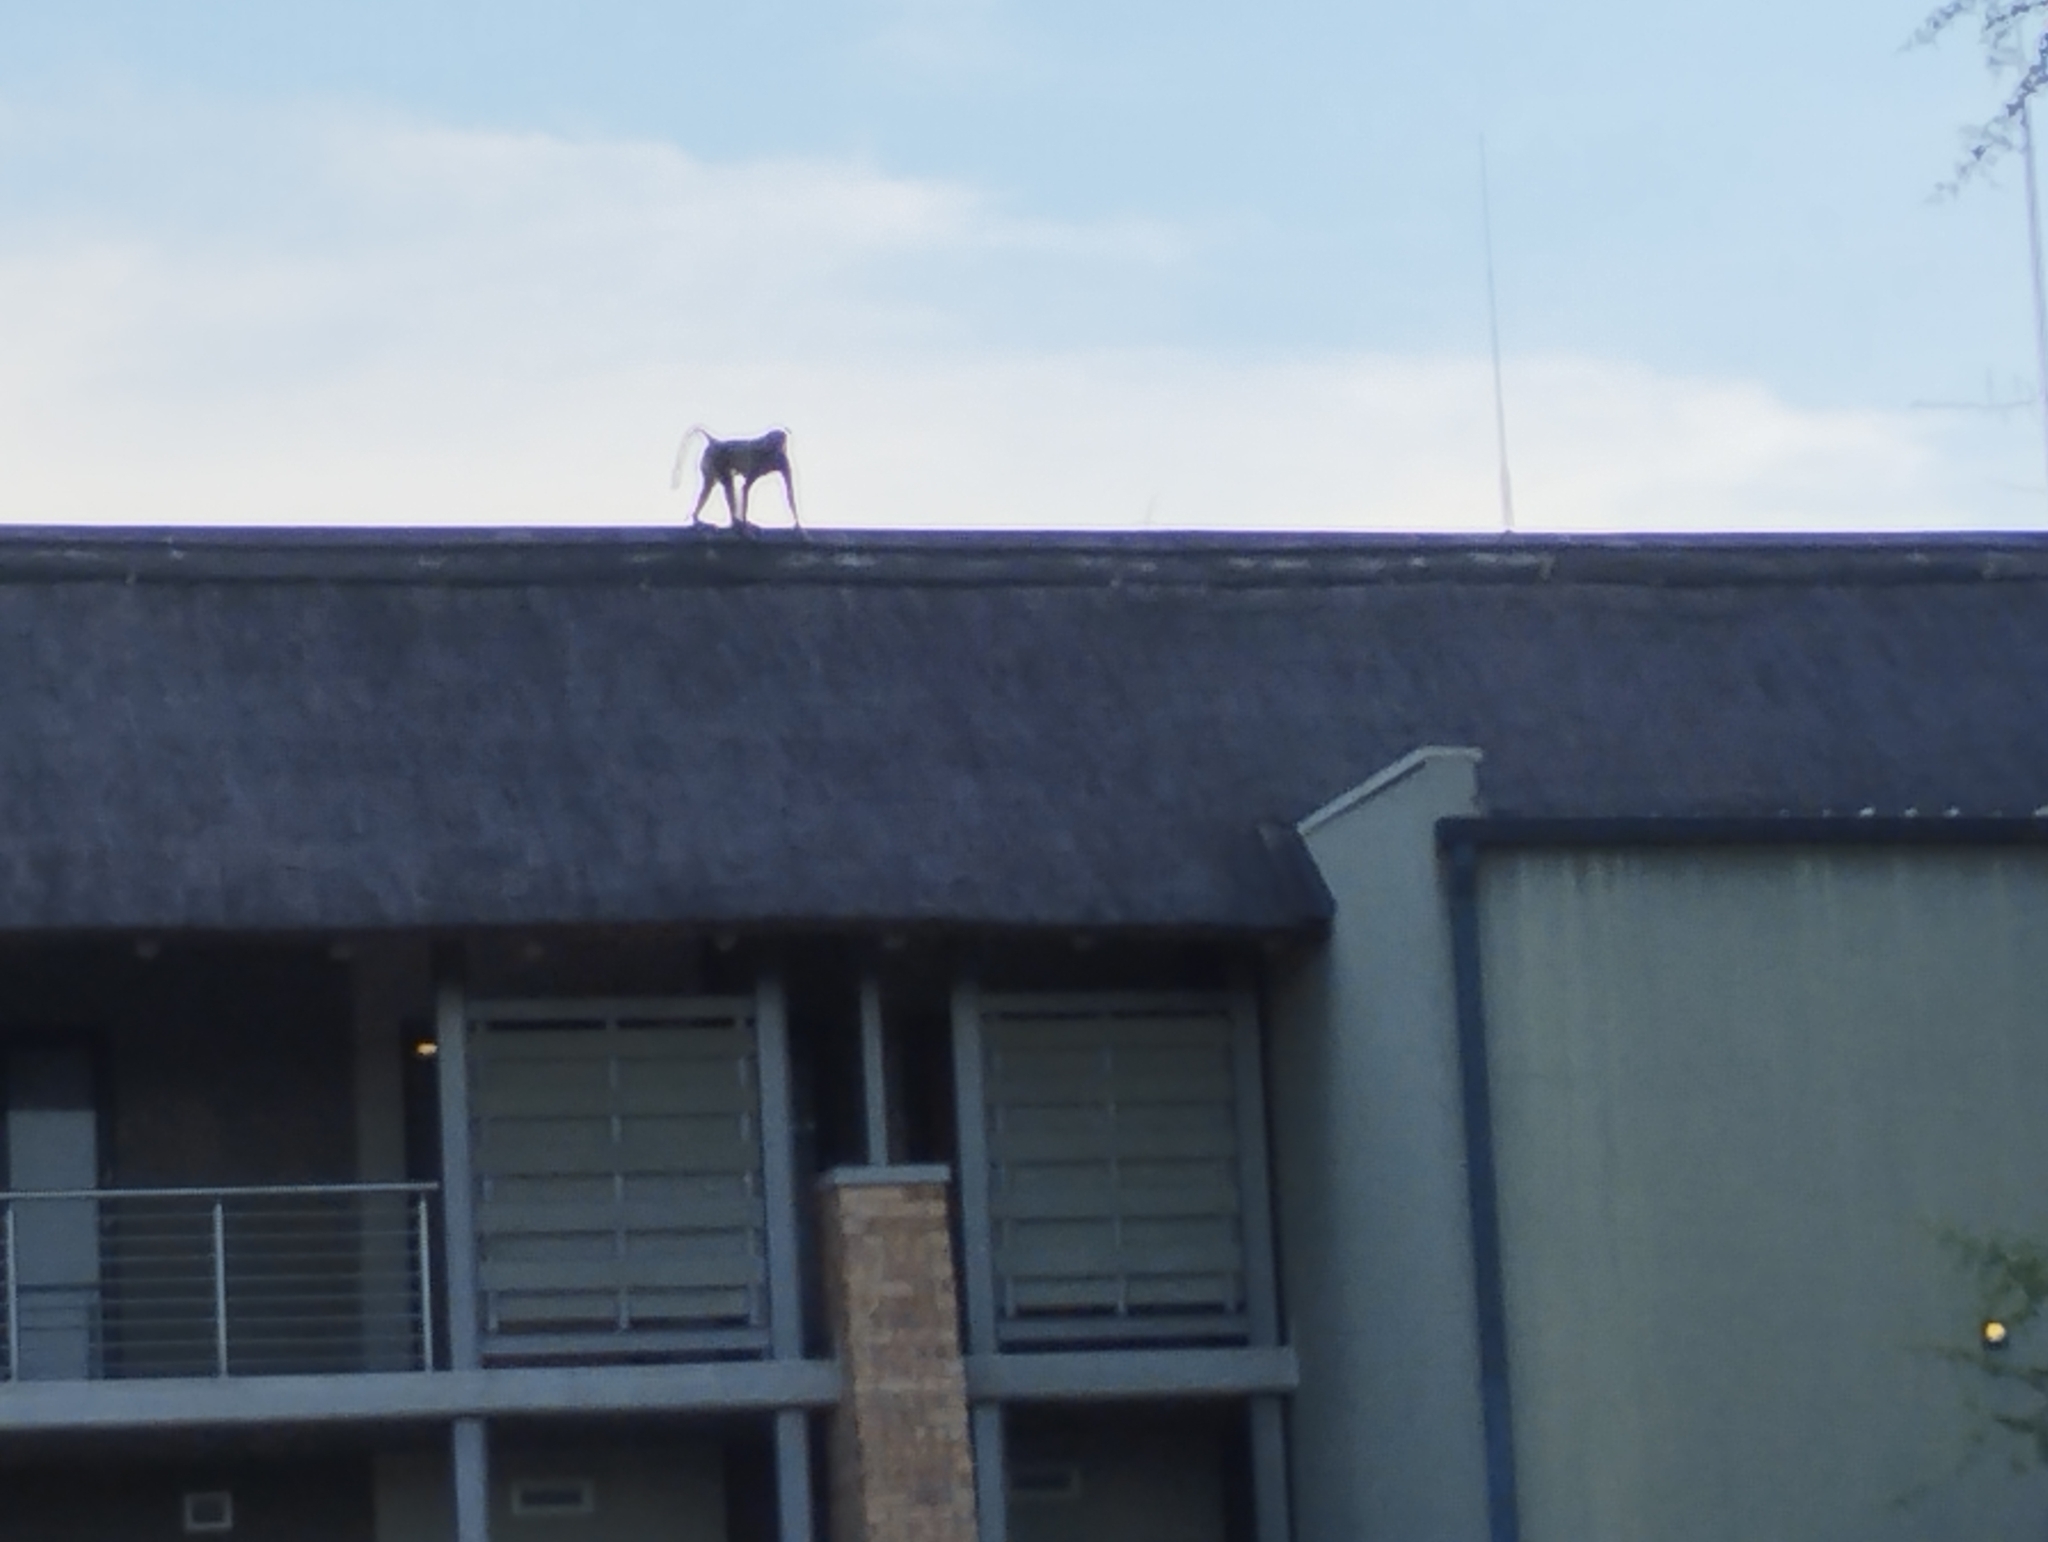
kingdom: Animalia
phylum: Chordata
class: Mammalia
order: Primates
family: Cercopithecidae
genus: Papio
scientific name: Papio ursinus
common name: Chacma baboon
